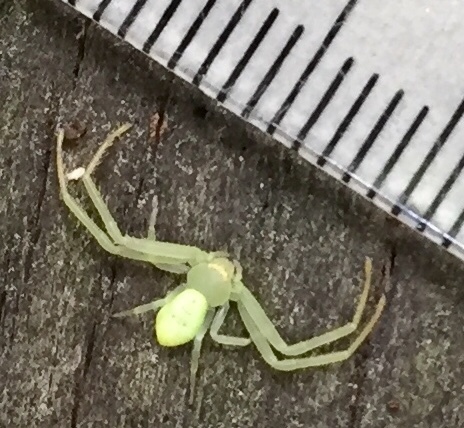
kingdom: Animalia
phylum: Arthropoda
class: Arachnida
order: Araneae
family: Thomisidae
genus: Misumessus
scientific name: Misumessus oblongus
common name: American green crab spider
